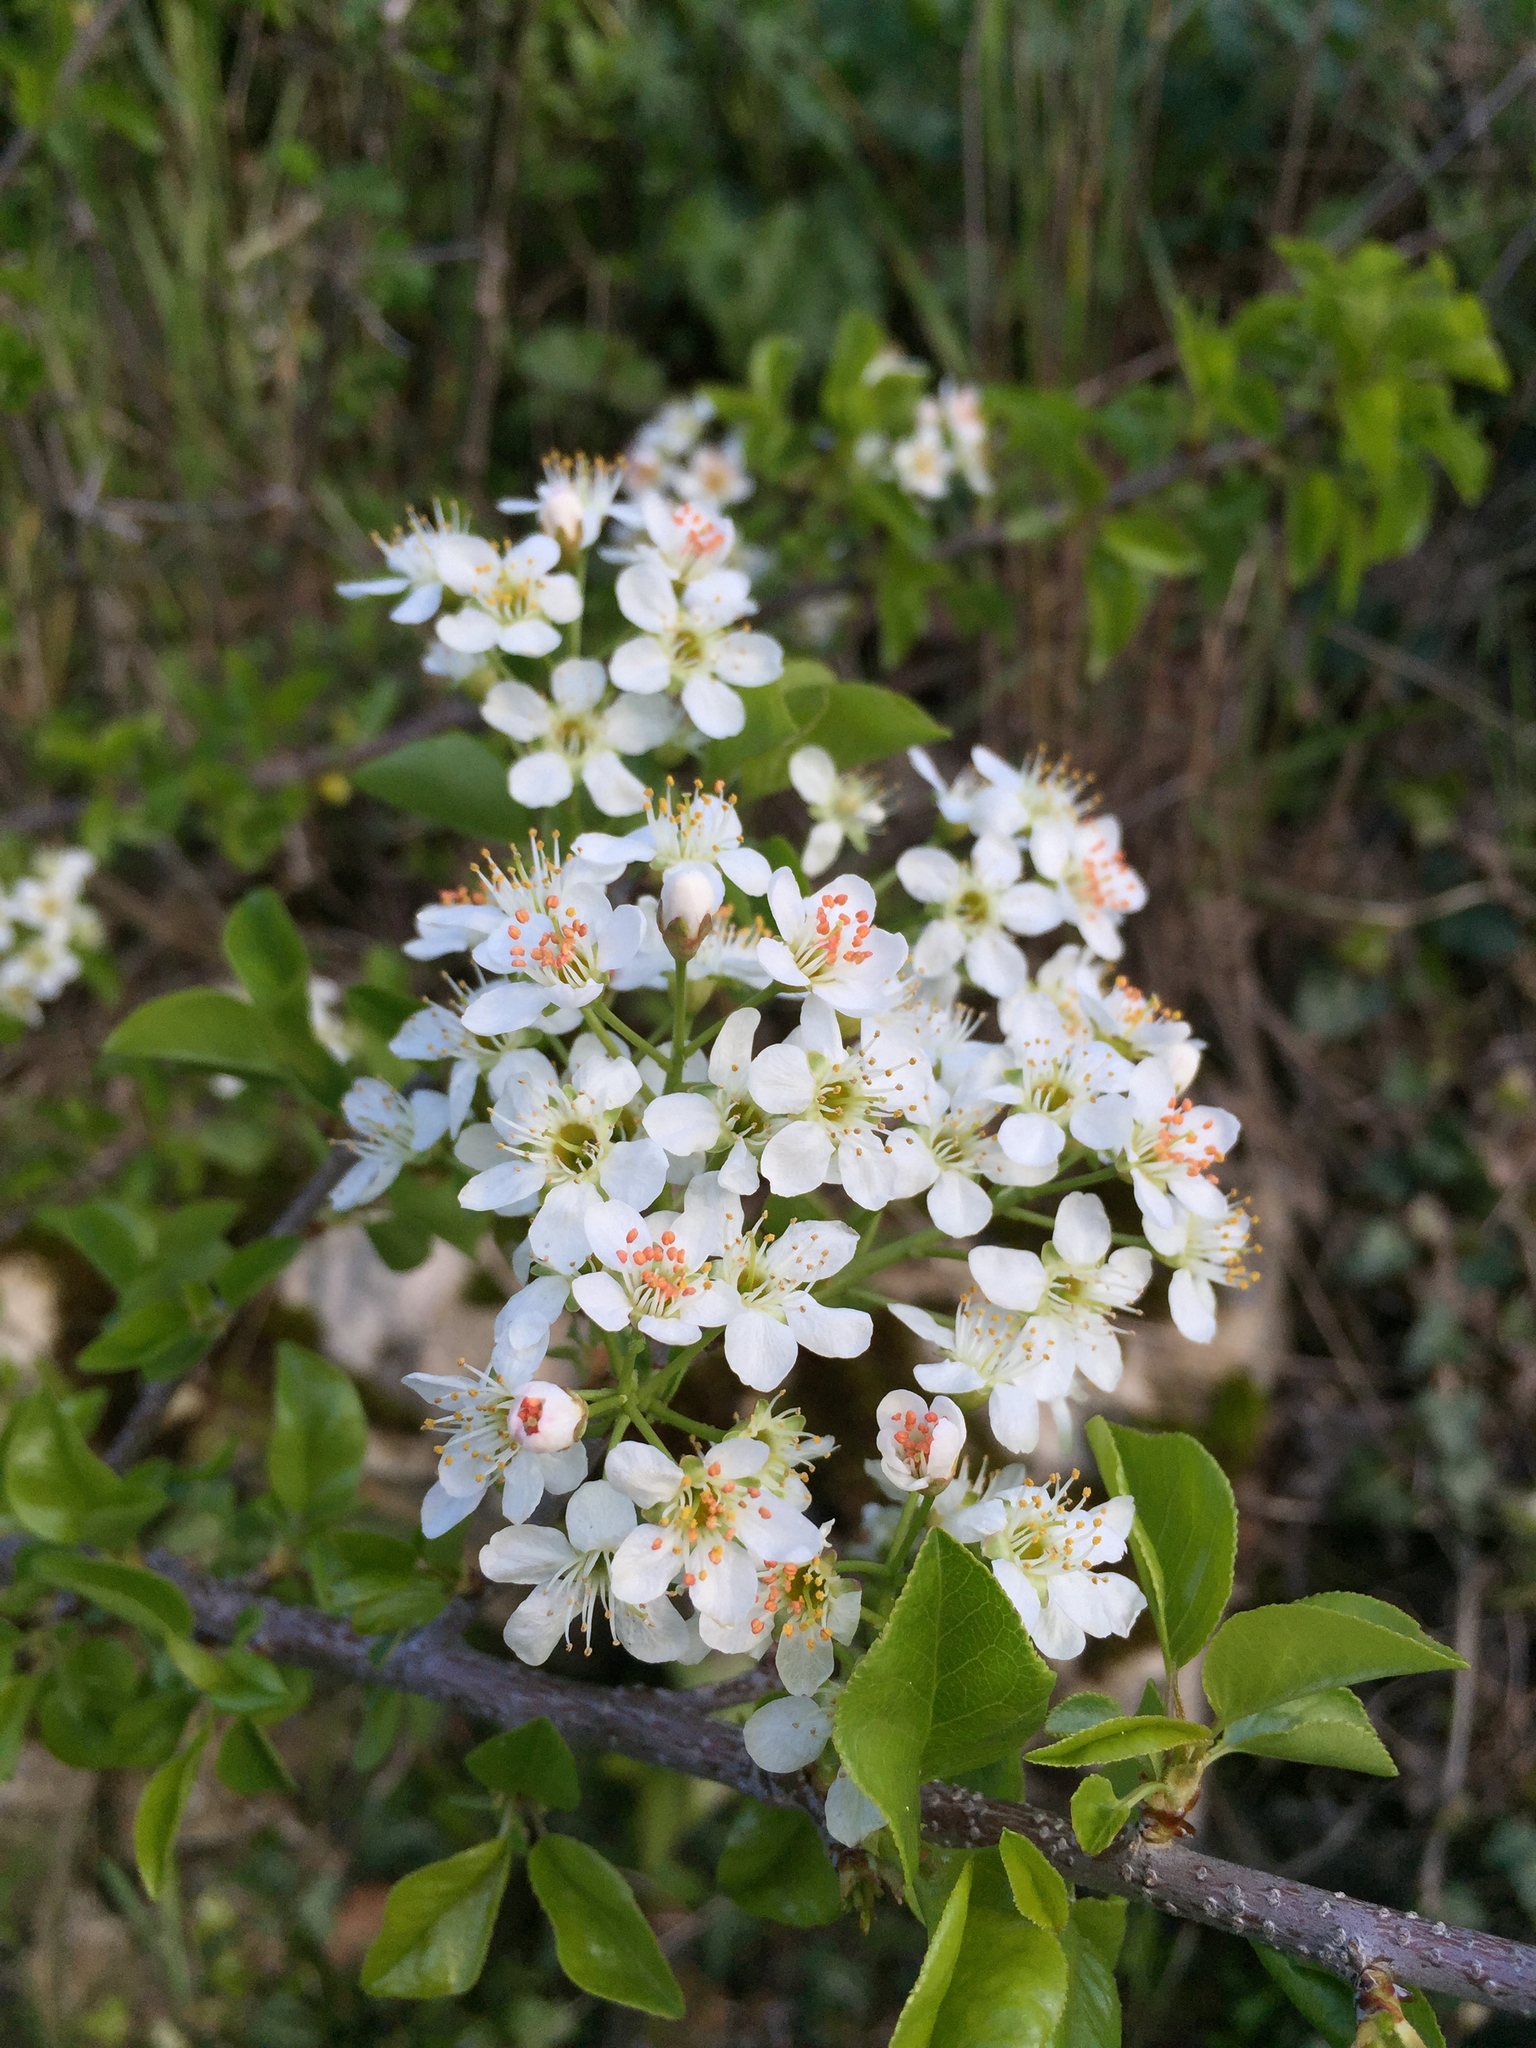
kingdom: Plantae
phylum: Tracheophyta
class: Magnoliopsida
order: Rosales
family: Rosaceae
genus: Prunus
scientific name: Prunus mahaleb
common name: Mahaleb cherry
